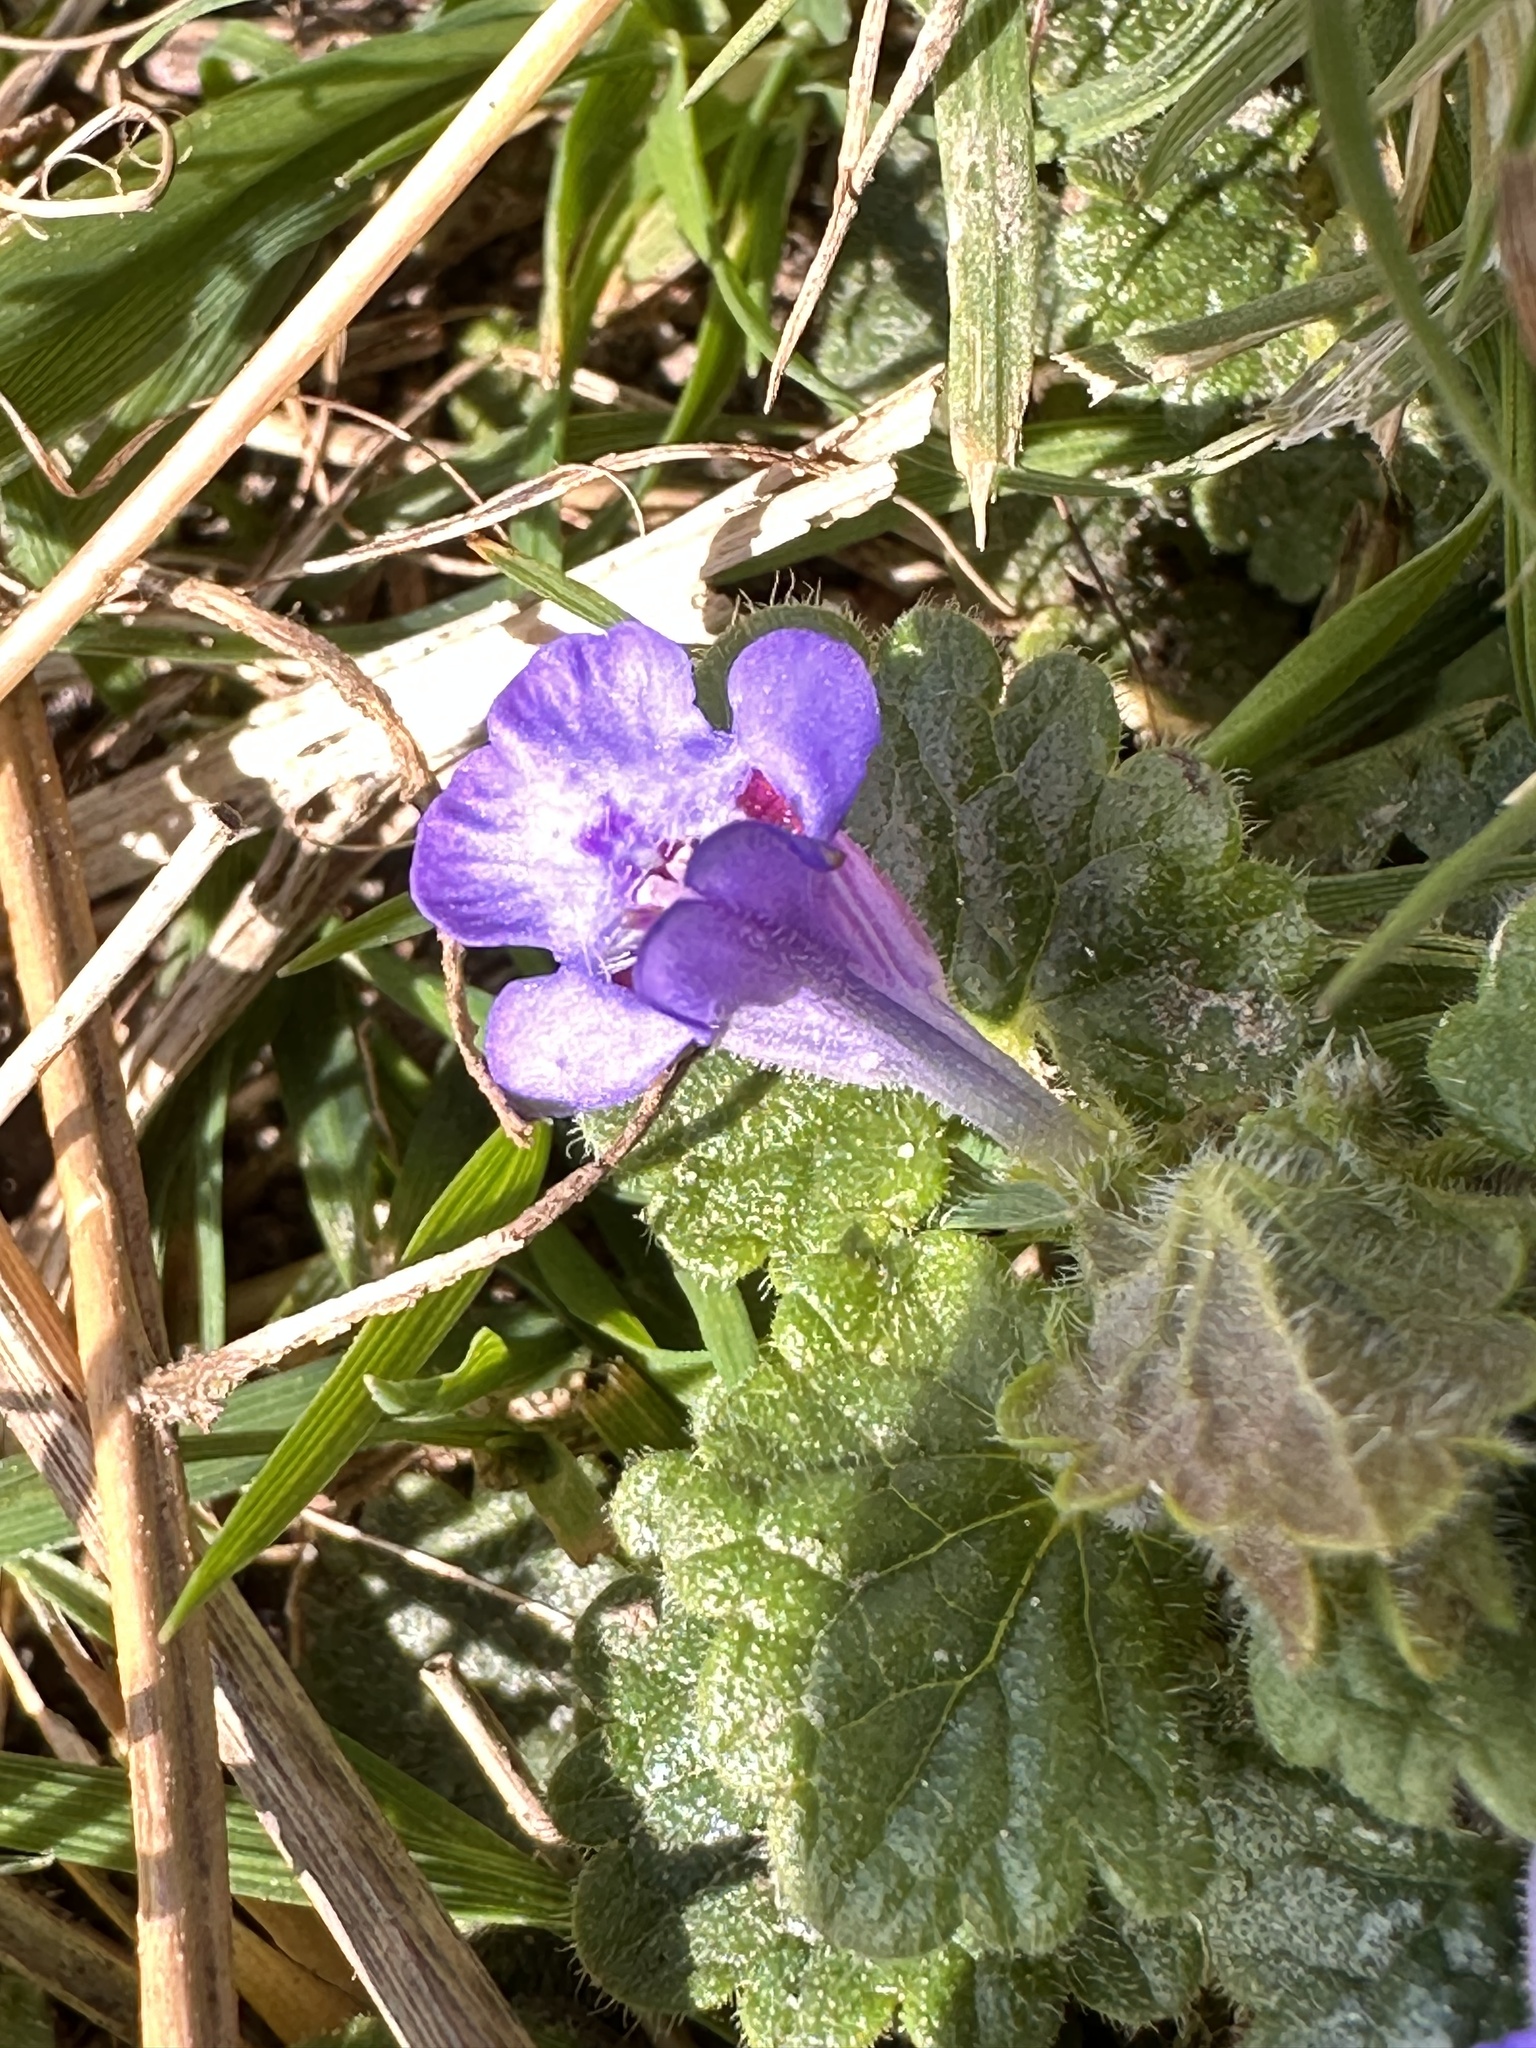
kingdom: Plantae
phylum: Tracheophyta
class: Magnoliopsida
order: Lamiales
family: Lamiaceae
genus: Glechoma
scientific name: Glechoma hederacea
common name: Ground ivy
